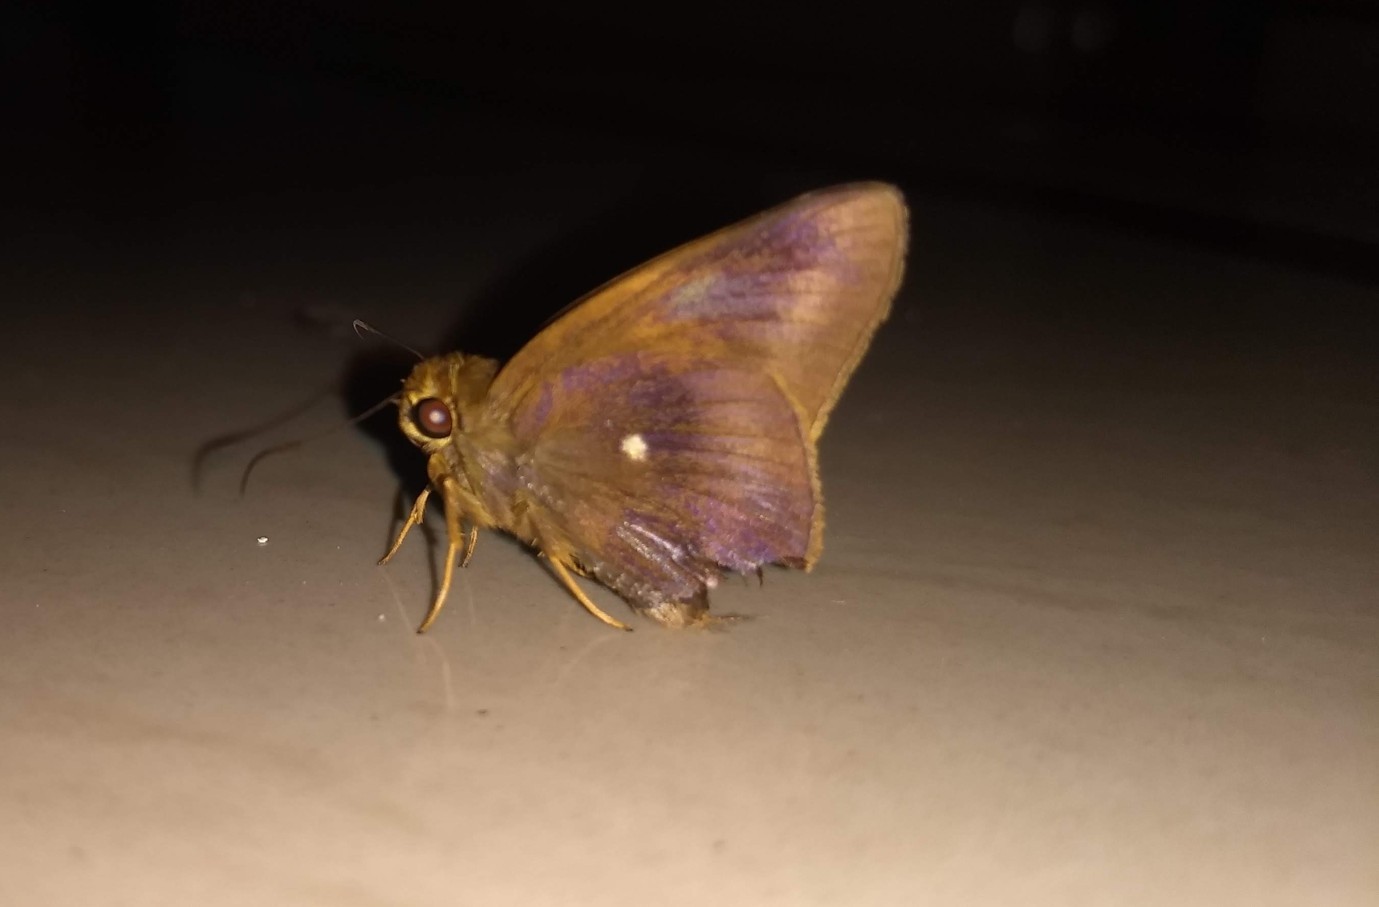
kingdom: Animalia
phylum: Arthropoda
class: Insecta
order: Lepidoptera
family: Hesperiidae
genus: Hasora
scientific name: Hasora badra
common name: Common awl
